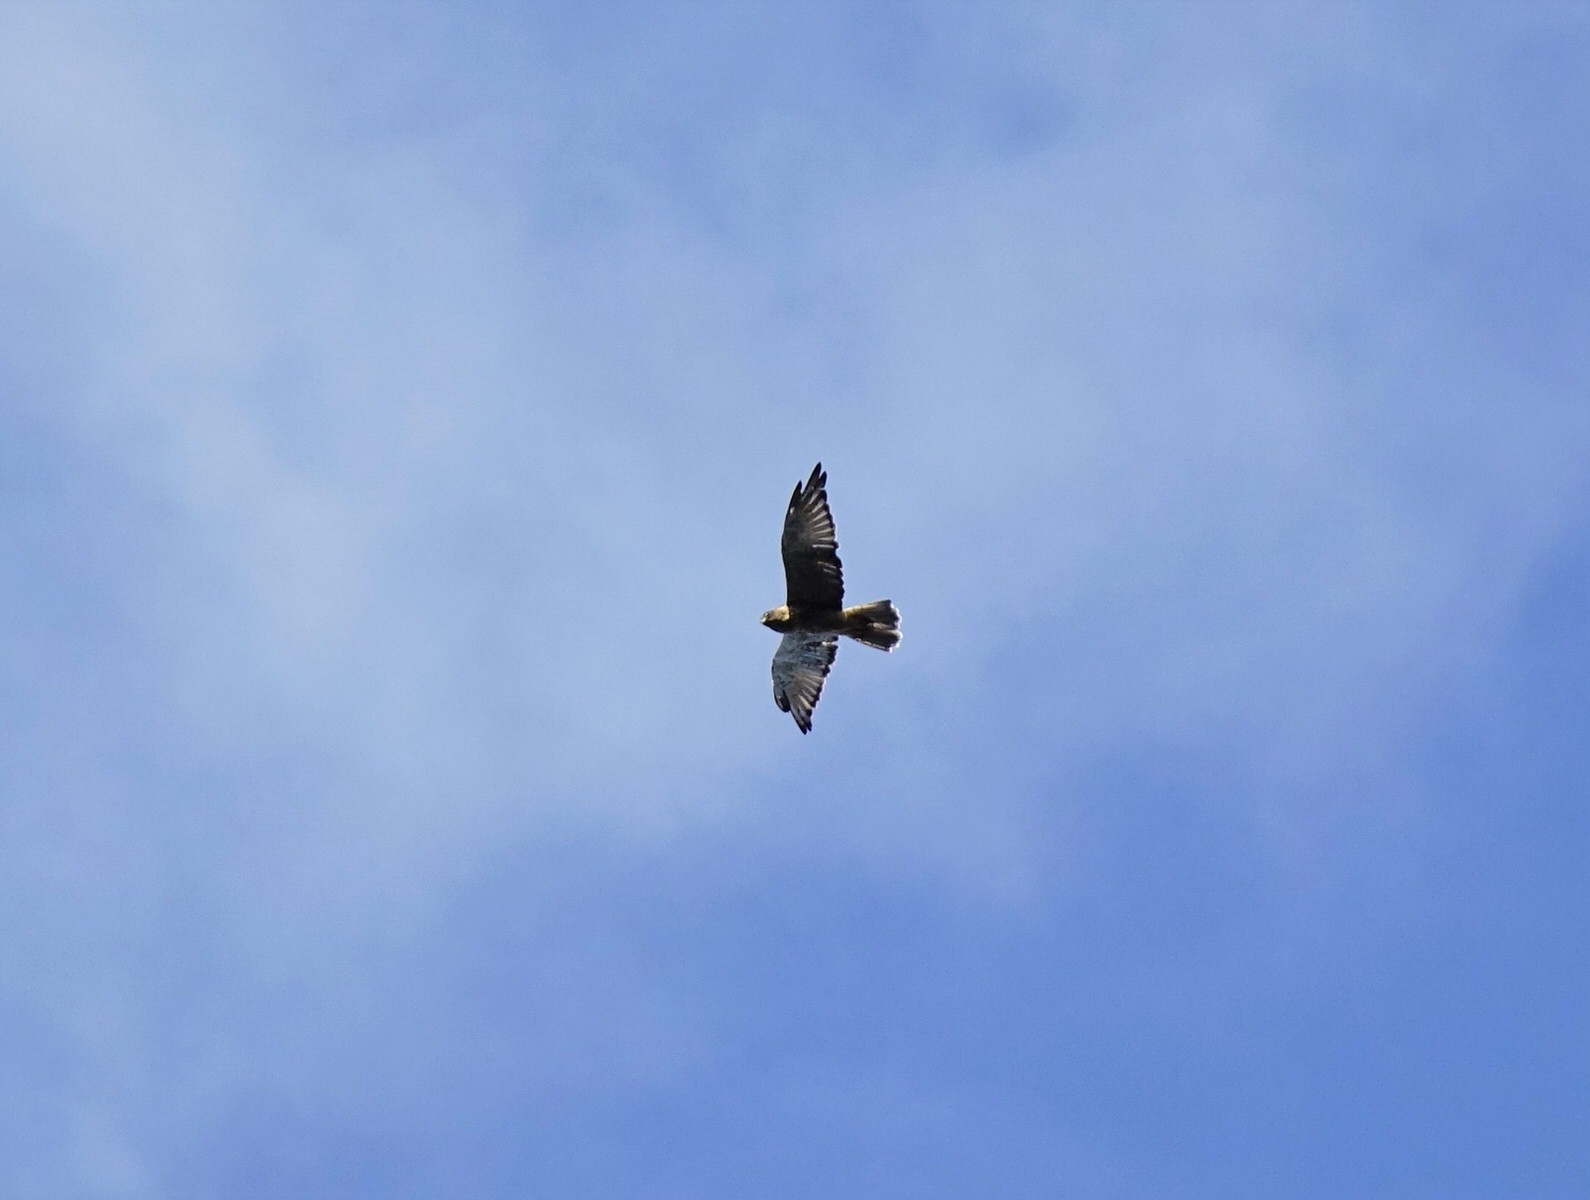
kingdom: Animalia
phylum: Chordata
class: Aves
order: Accipitriformes
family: Accipitridae
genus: Circus
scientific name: Circus approximans
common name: Swamp harrier
